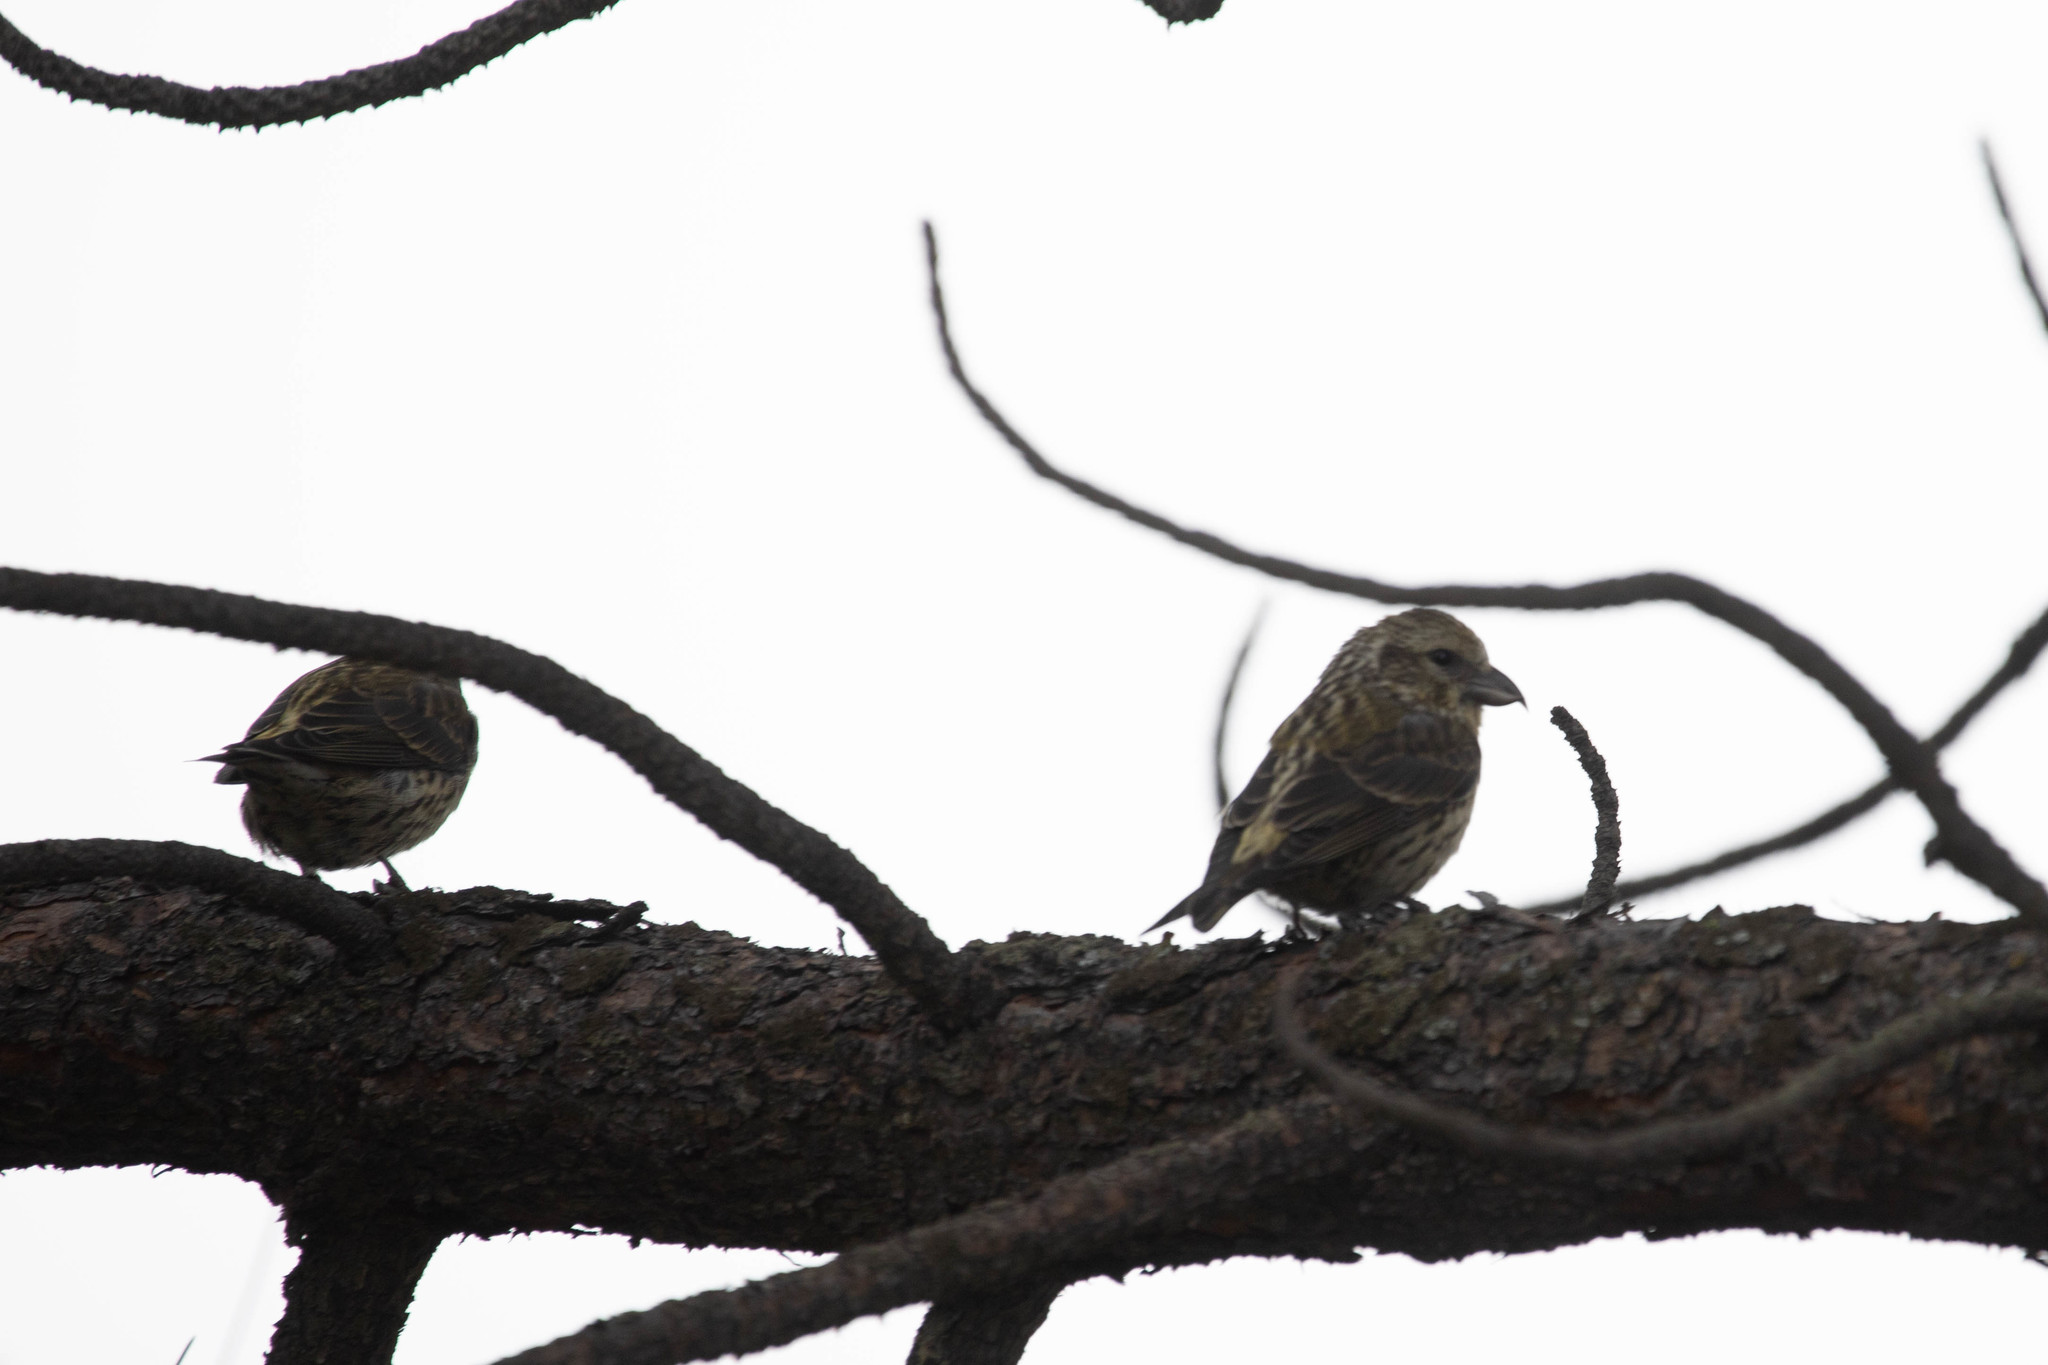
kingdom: Animalia
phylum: Chordata
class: Aves
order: Passeriformes
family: Fringillidae
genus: Loxia
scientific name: Loxia curvirostra
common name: Red crossbill
